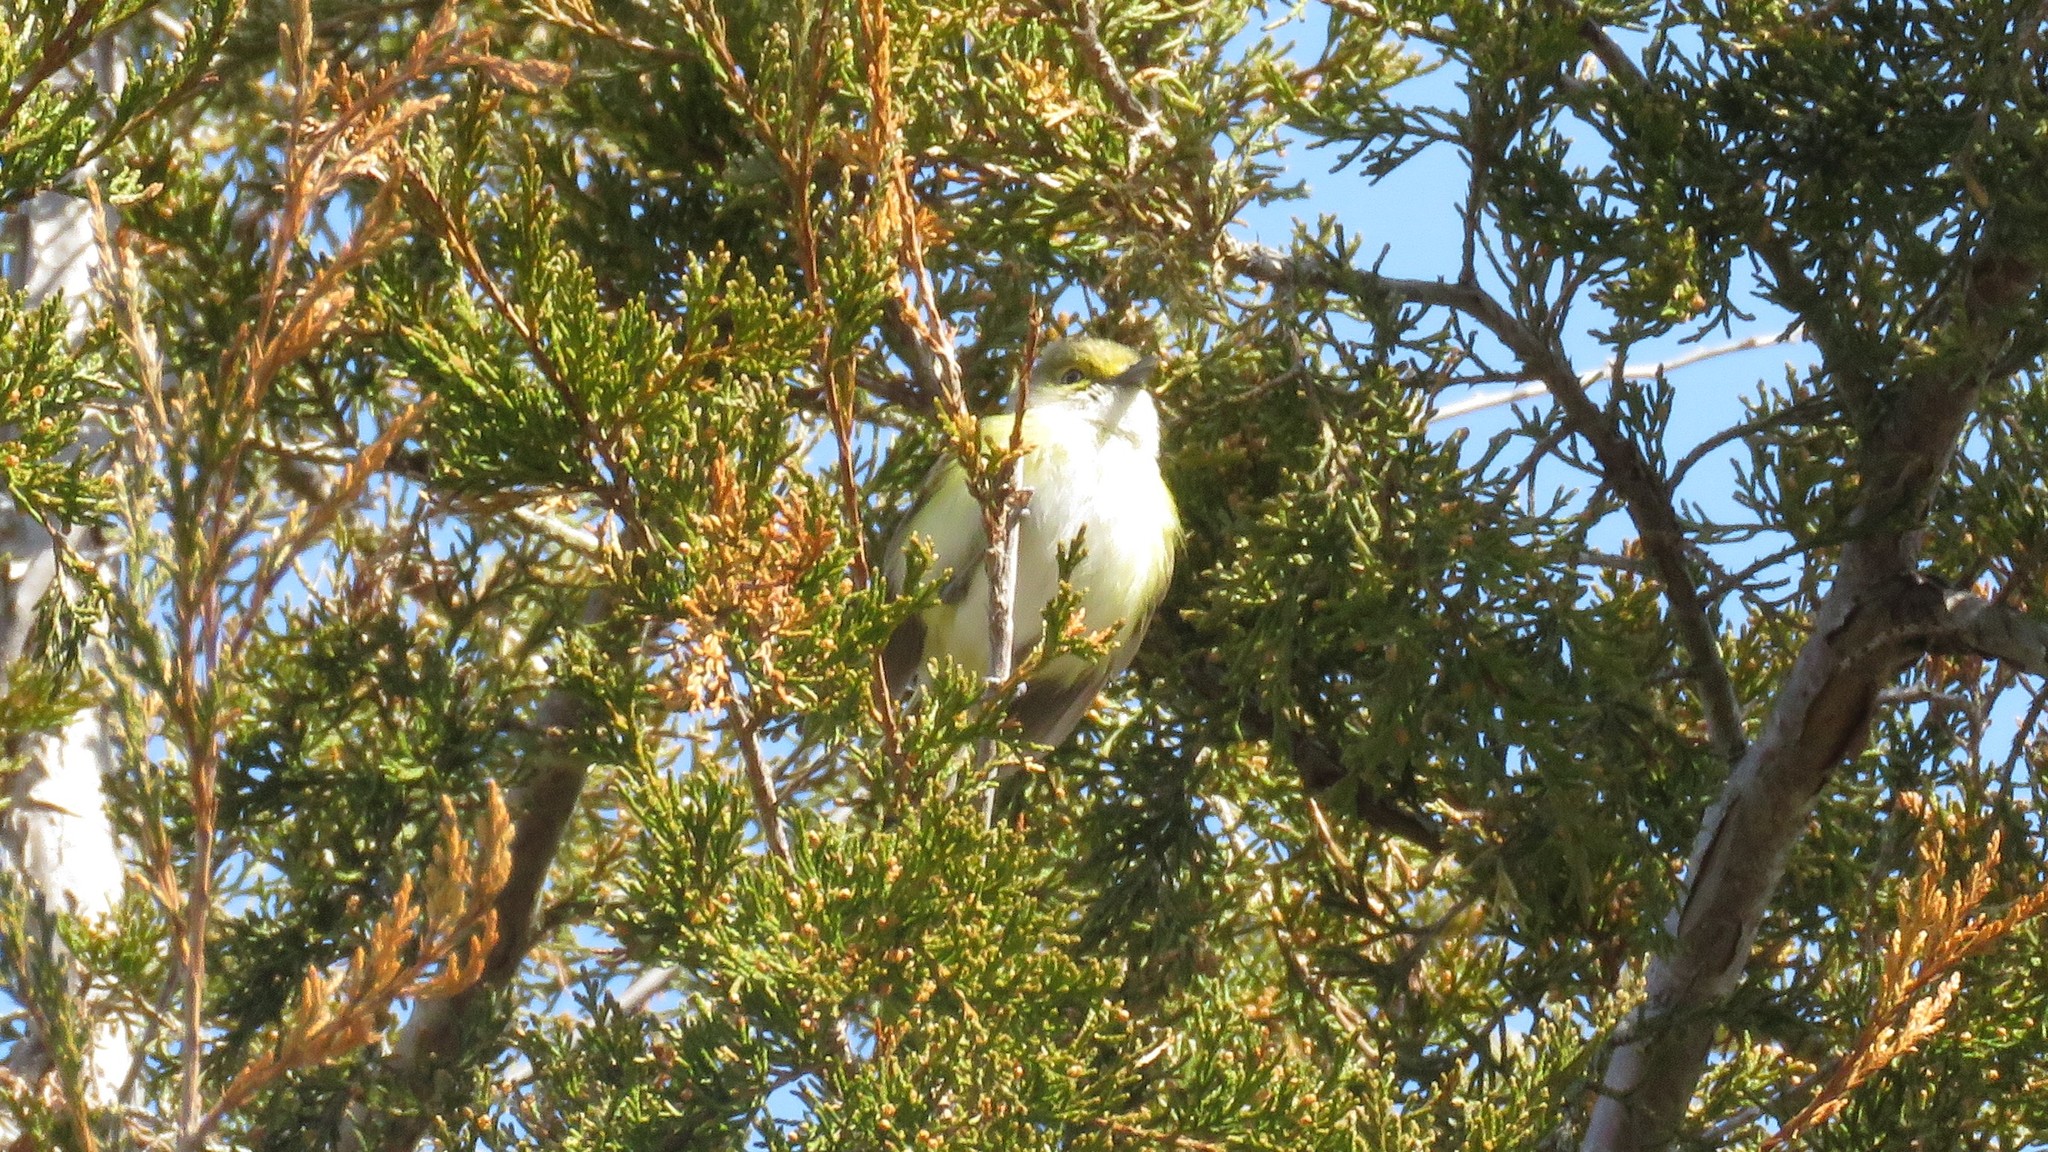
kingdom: Animalia
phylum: Chordata
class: Aves
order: Passeriformes
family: Vireonidae
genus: Vireo
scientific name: Vireo griseus
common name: White-eyed vireo
